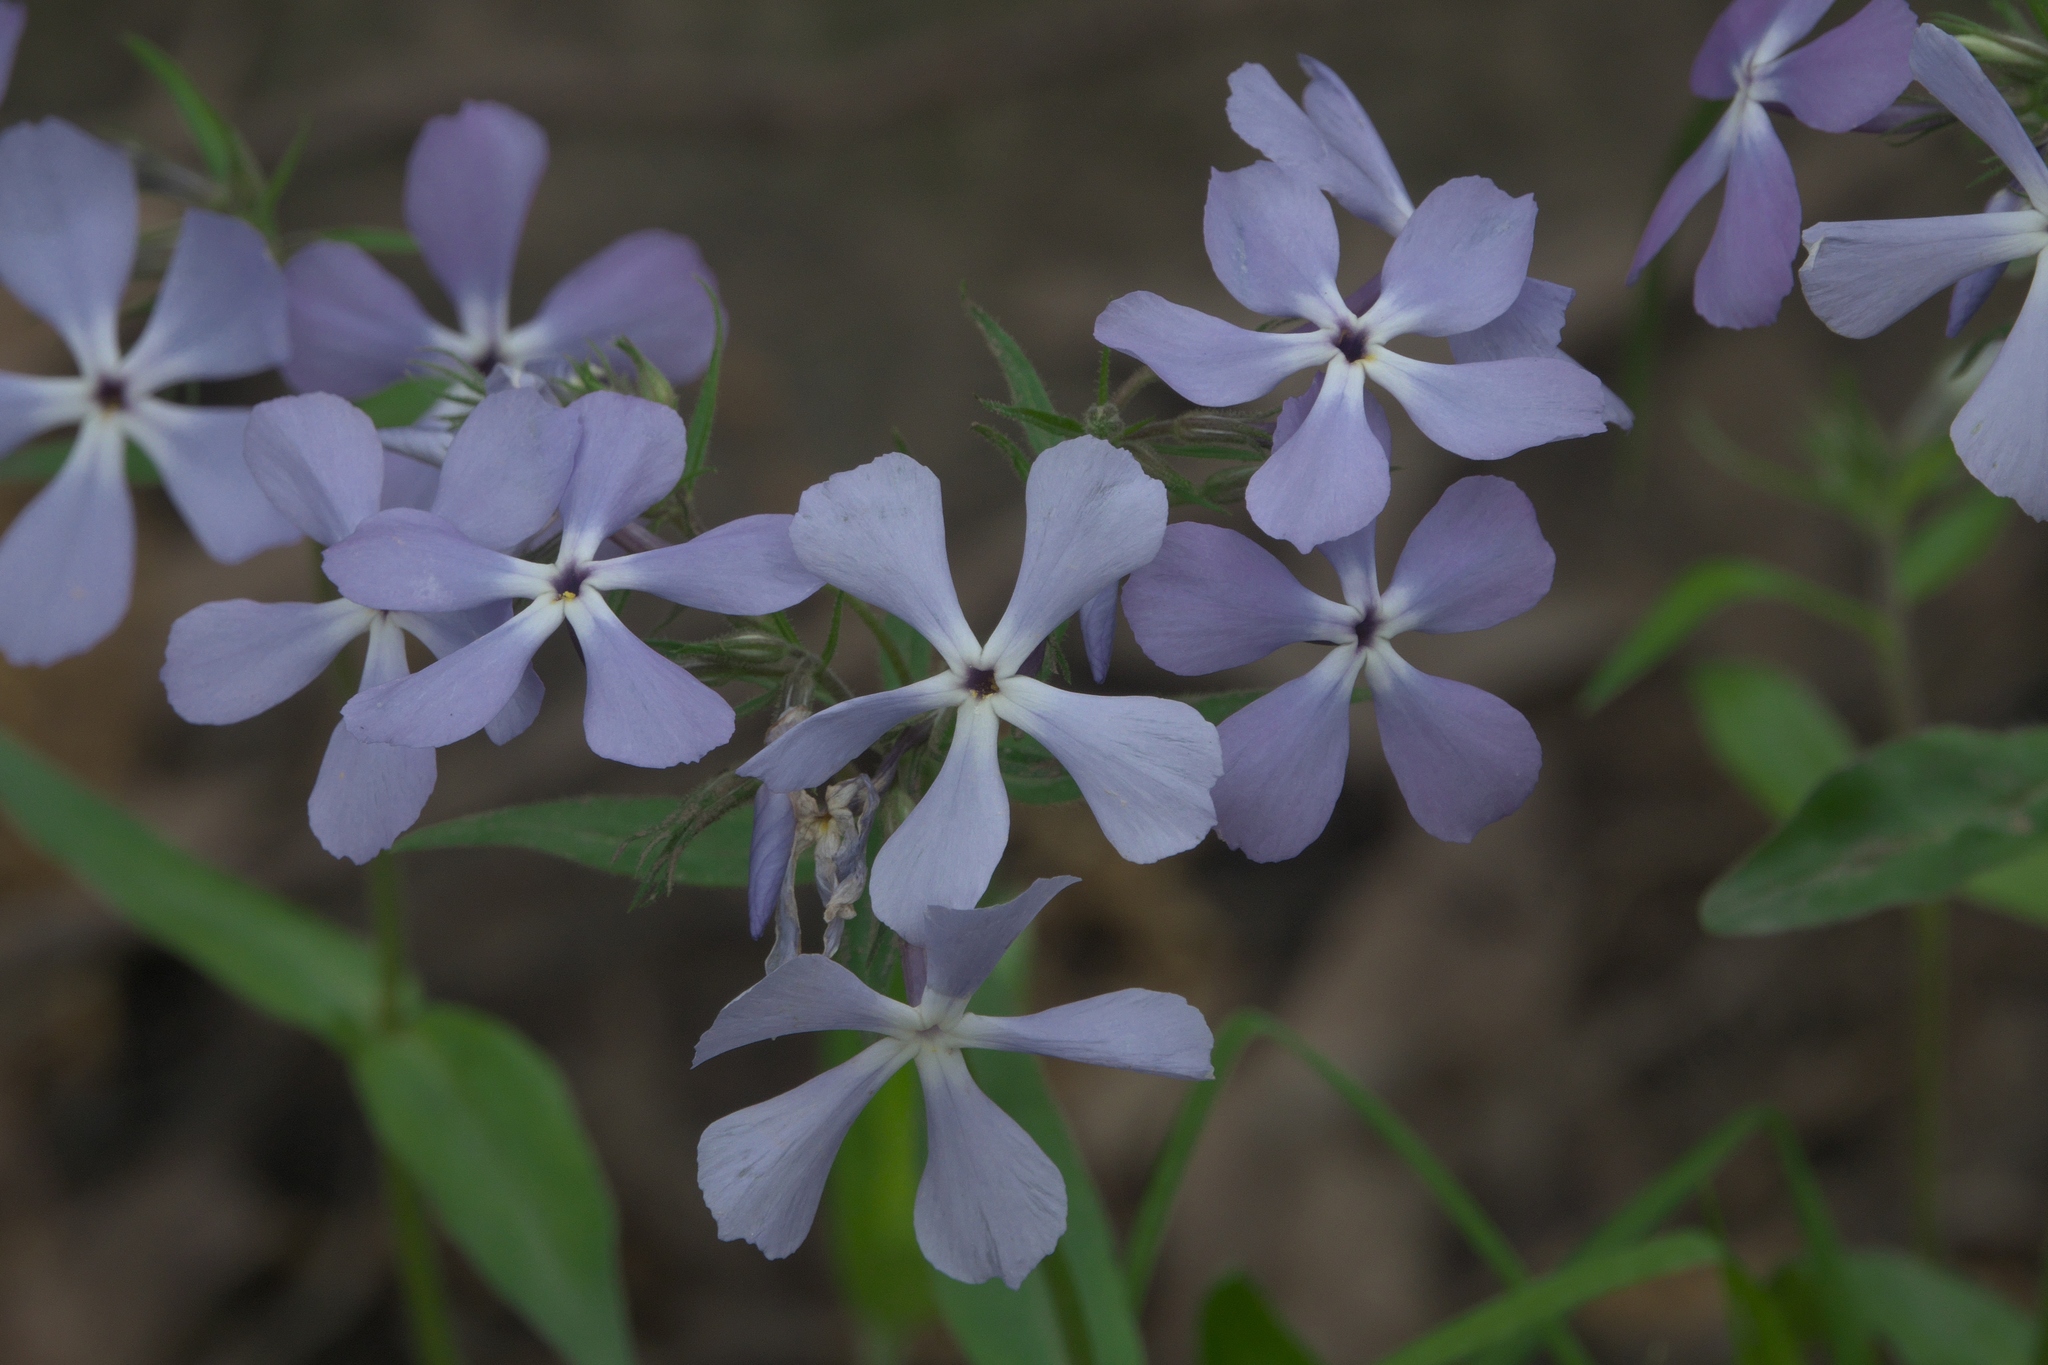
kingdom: Plantae
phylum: Tracheophyta
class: Magnoliopsida
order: Ericales
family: Polemoniaceae
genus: Phlox
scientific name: Phlox divaricata
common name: Blue phlox
